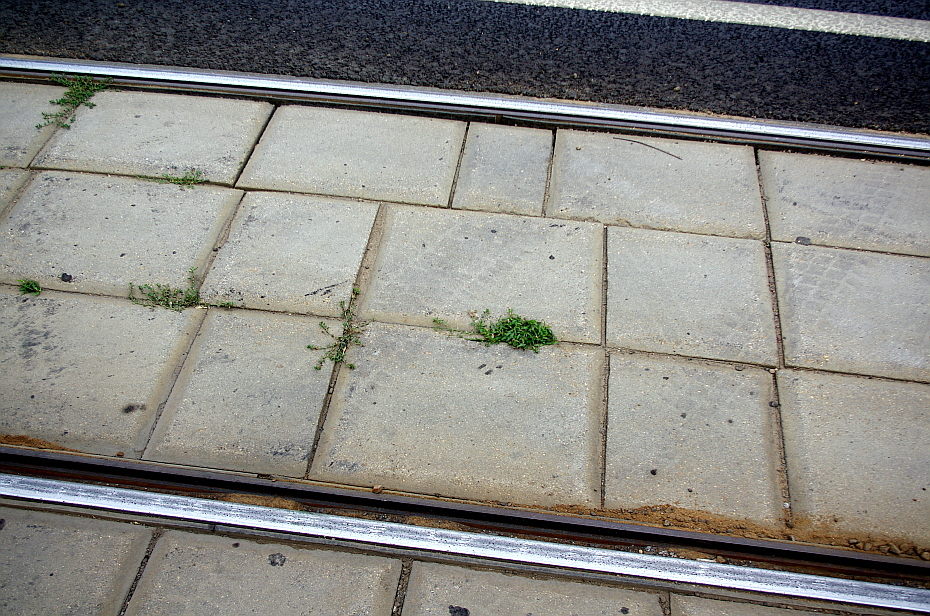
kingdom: Plantae
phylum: Tracheophyta
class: Magnoliopsida
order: Caryophyllales
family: Polygonaceae
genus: Persicaria
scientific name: Persicaria lapathifolia
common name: Curlytop knotweed
